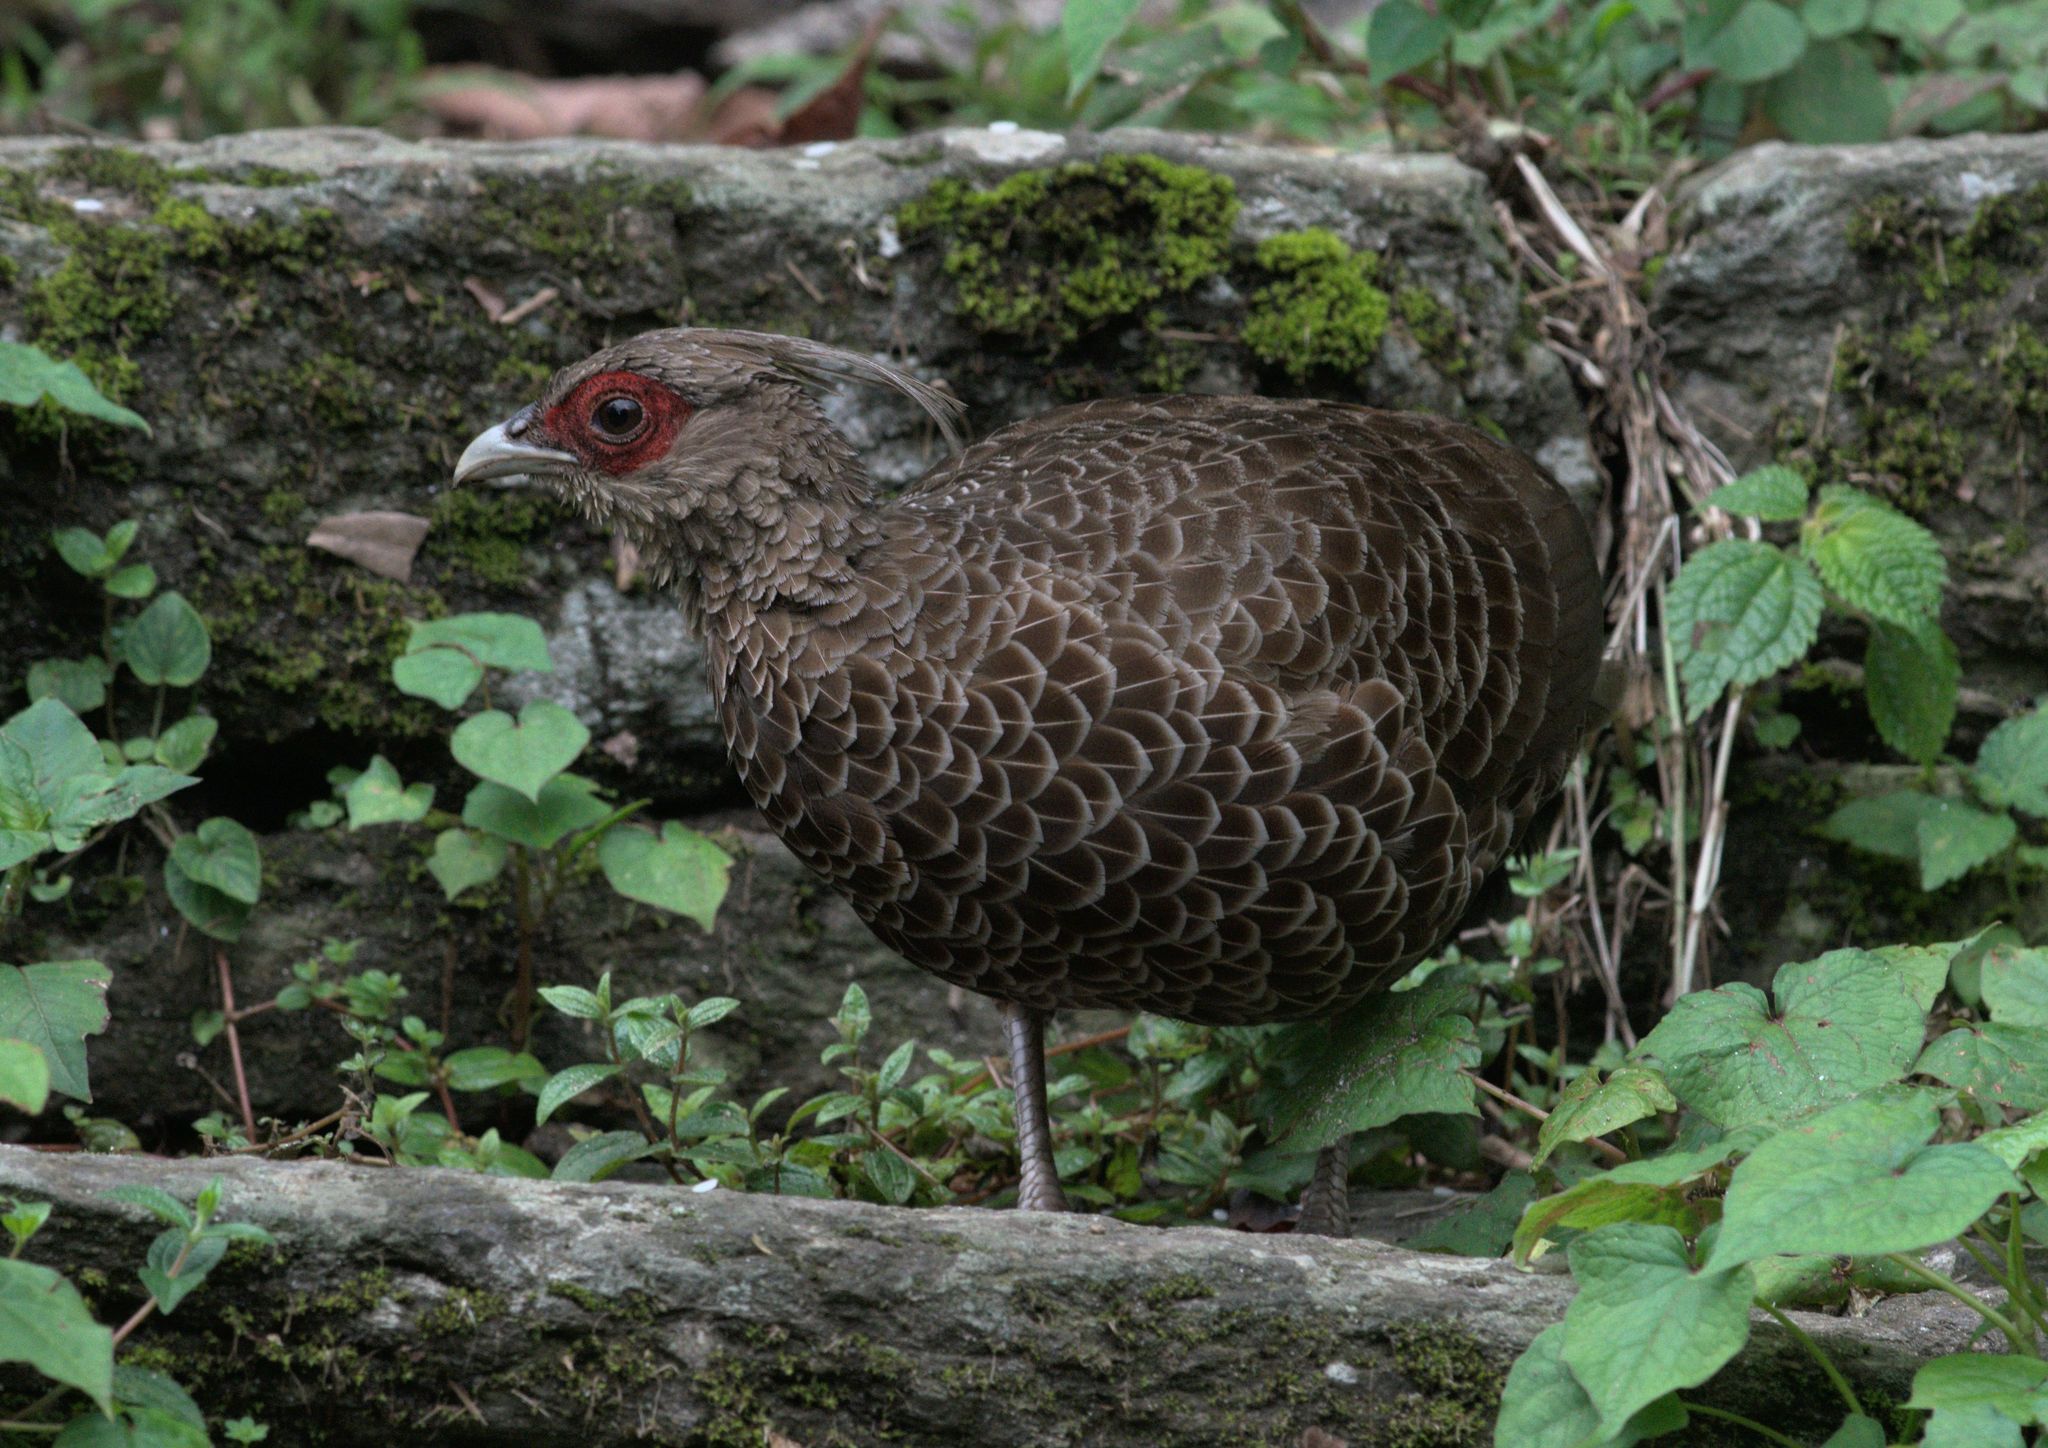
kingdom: Animalia
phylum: Chordata
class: Aves
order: Galliformes
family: Phasianidae
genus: Lophura
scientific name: Lophura leucomelanos
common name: Kalij pheasant
